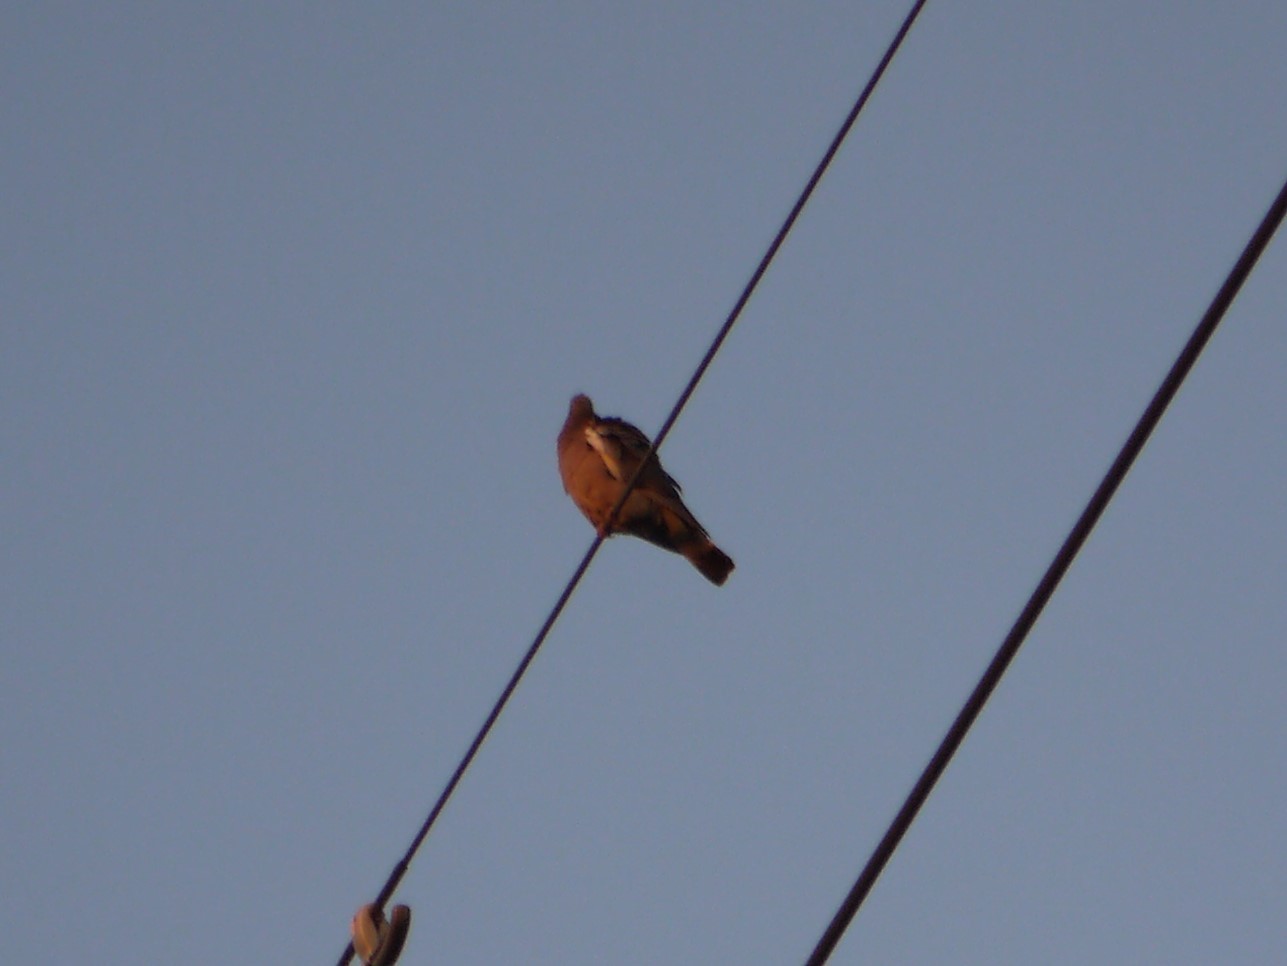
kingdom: Animalia
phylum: Chordata
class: Aves
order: Columbiformes
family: Columbidae
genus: Columba
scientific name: Columba palumbus
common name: Common wood pigeon
